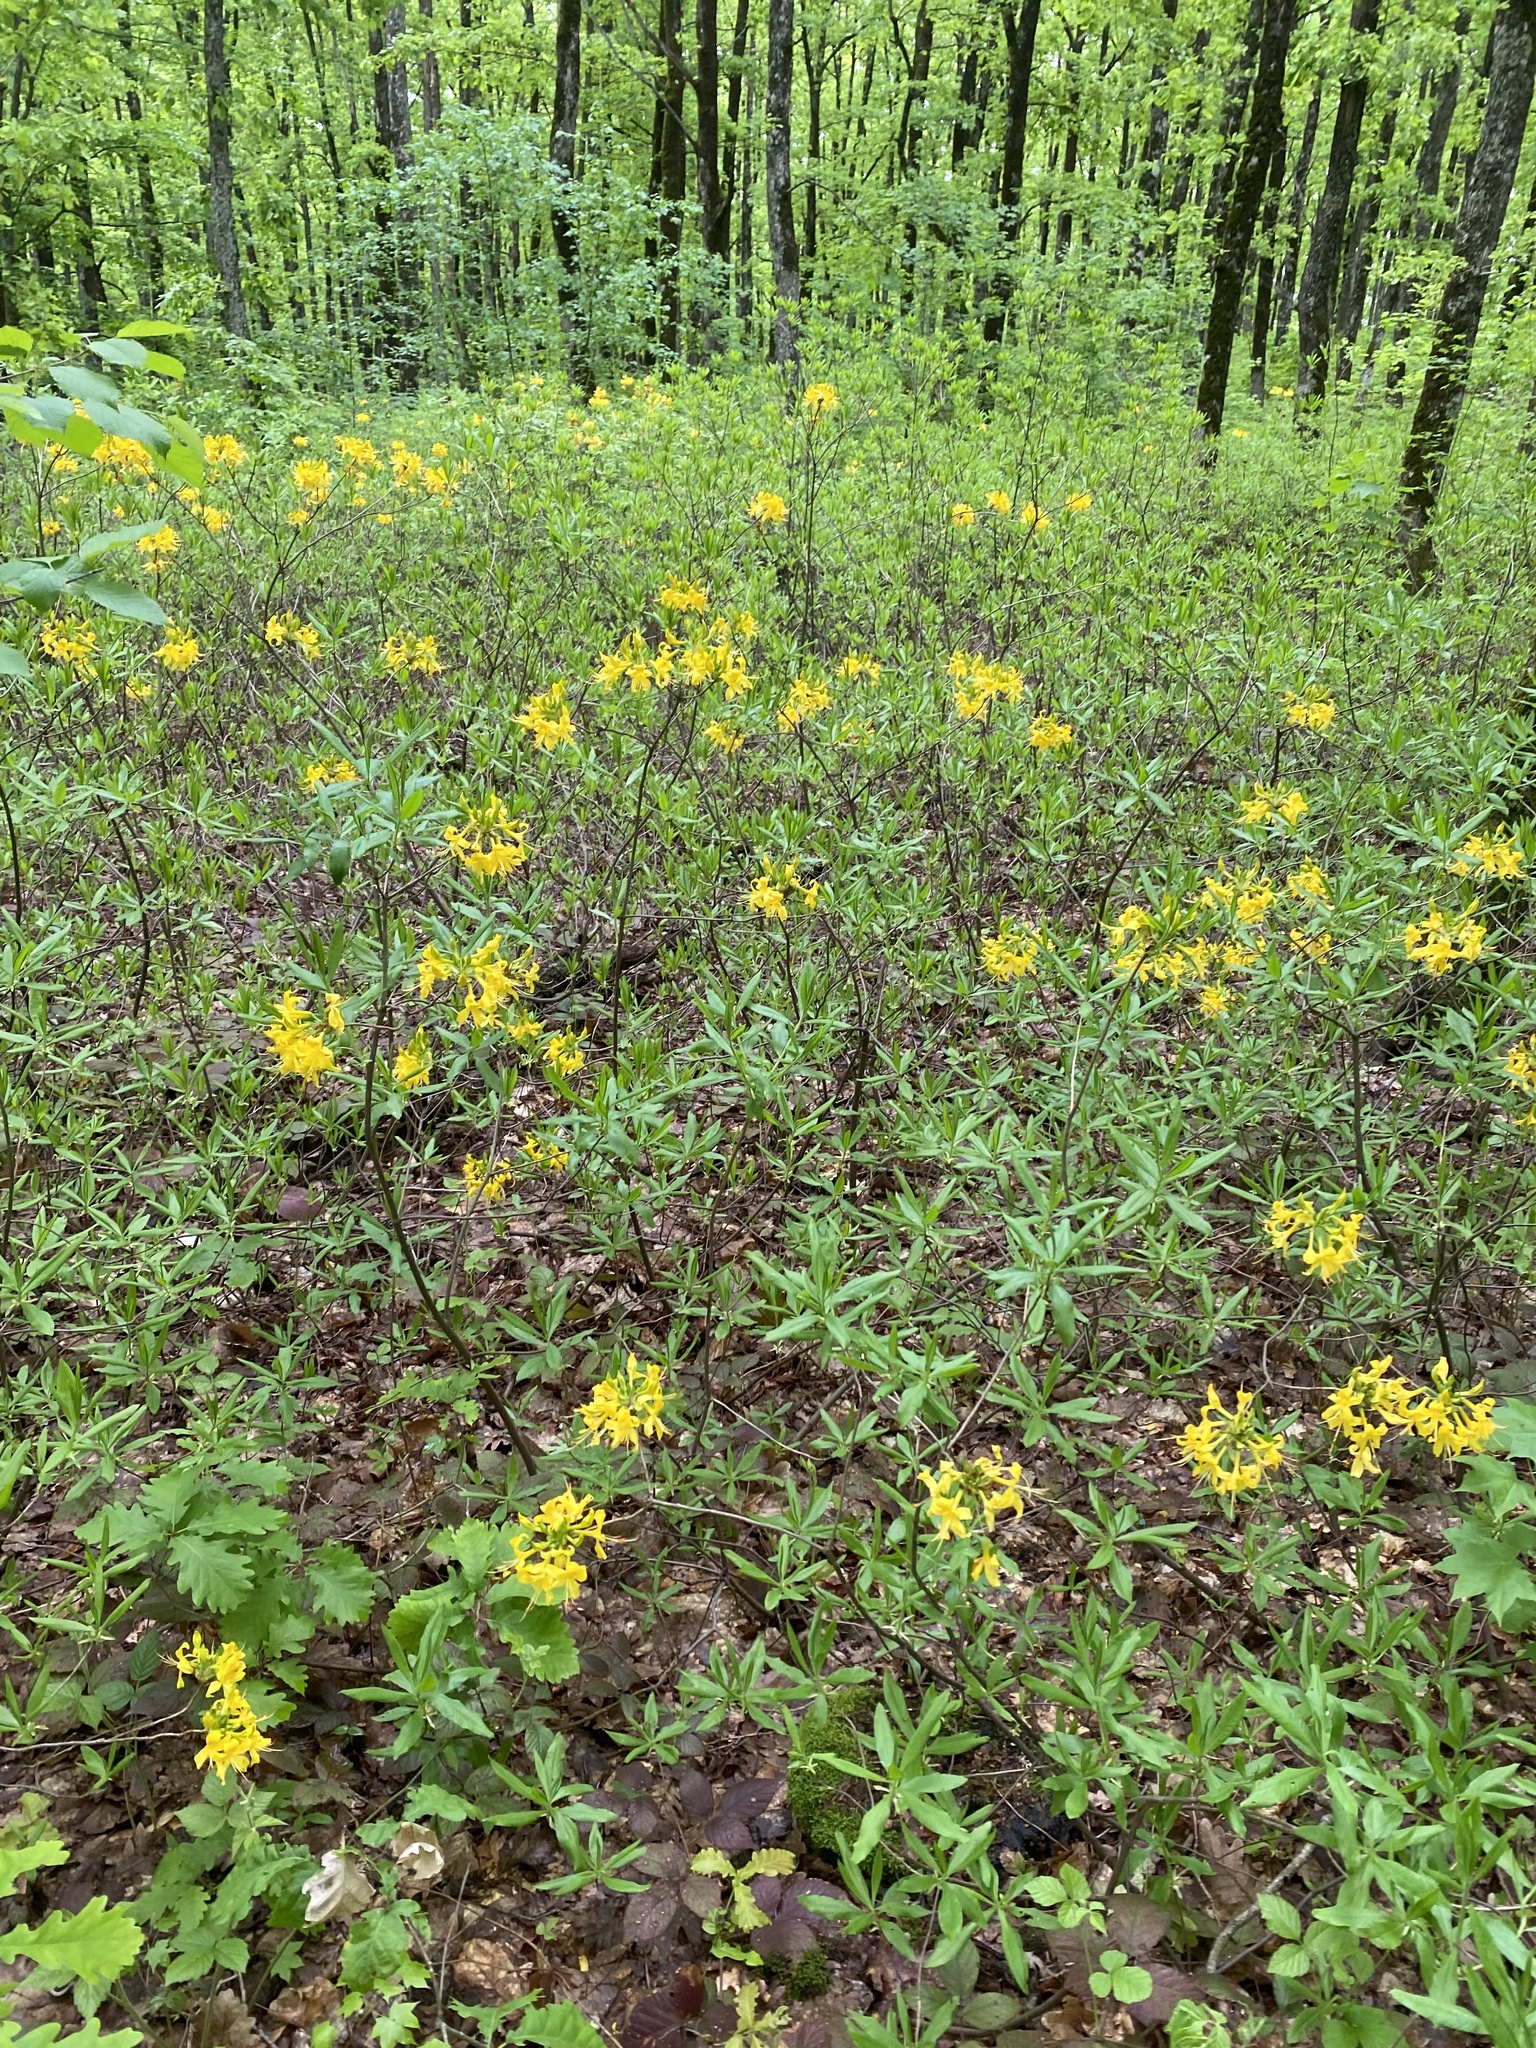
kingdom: Plantae
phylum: Tracheophyta
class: Magnoliopsida
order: Ericales
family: Ericaceae
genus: Rhododendron
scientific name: Rhododendron luteum
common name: Yellow azalea
